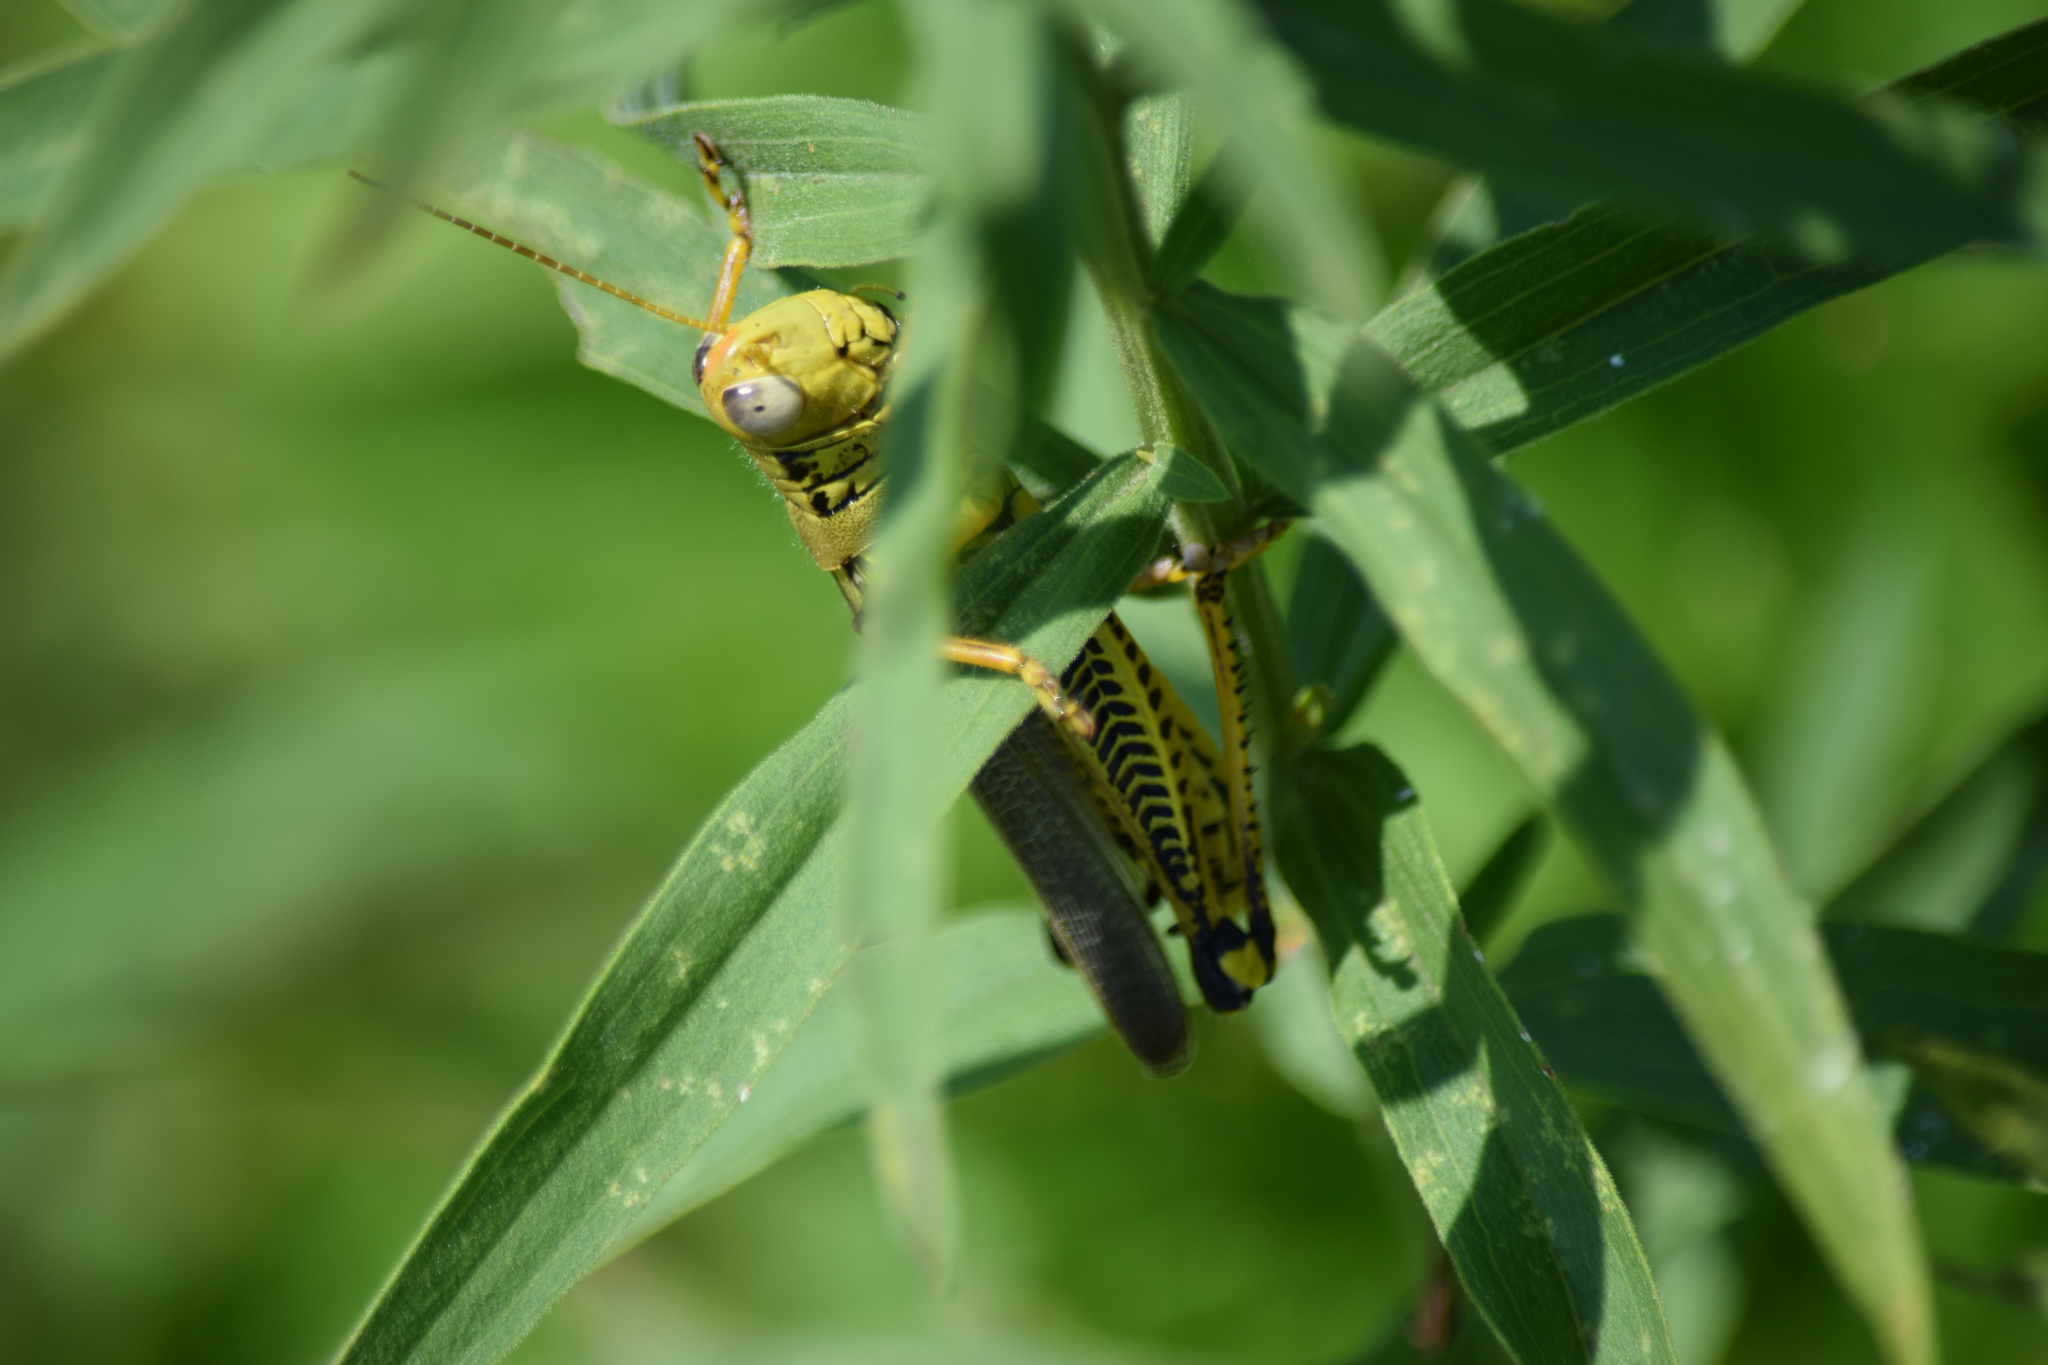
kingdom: Animalia
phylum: Arthropoda
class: Insecta
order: Orthoptera
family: Acrididae
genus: Melanoplus
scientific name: Melanoplus differentialis
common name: Differential grasshopper
